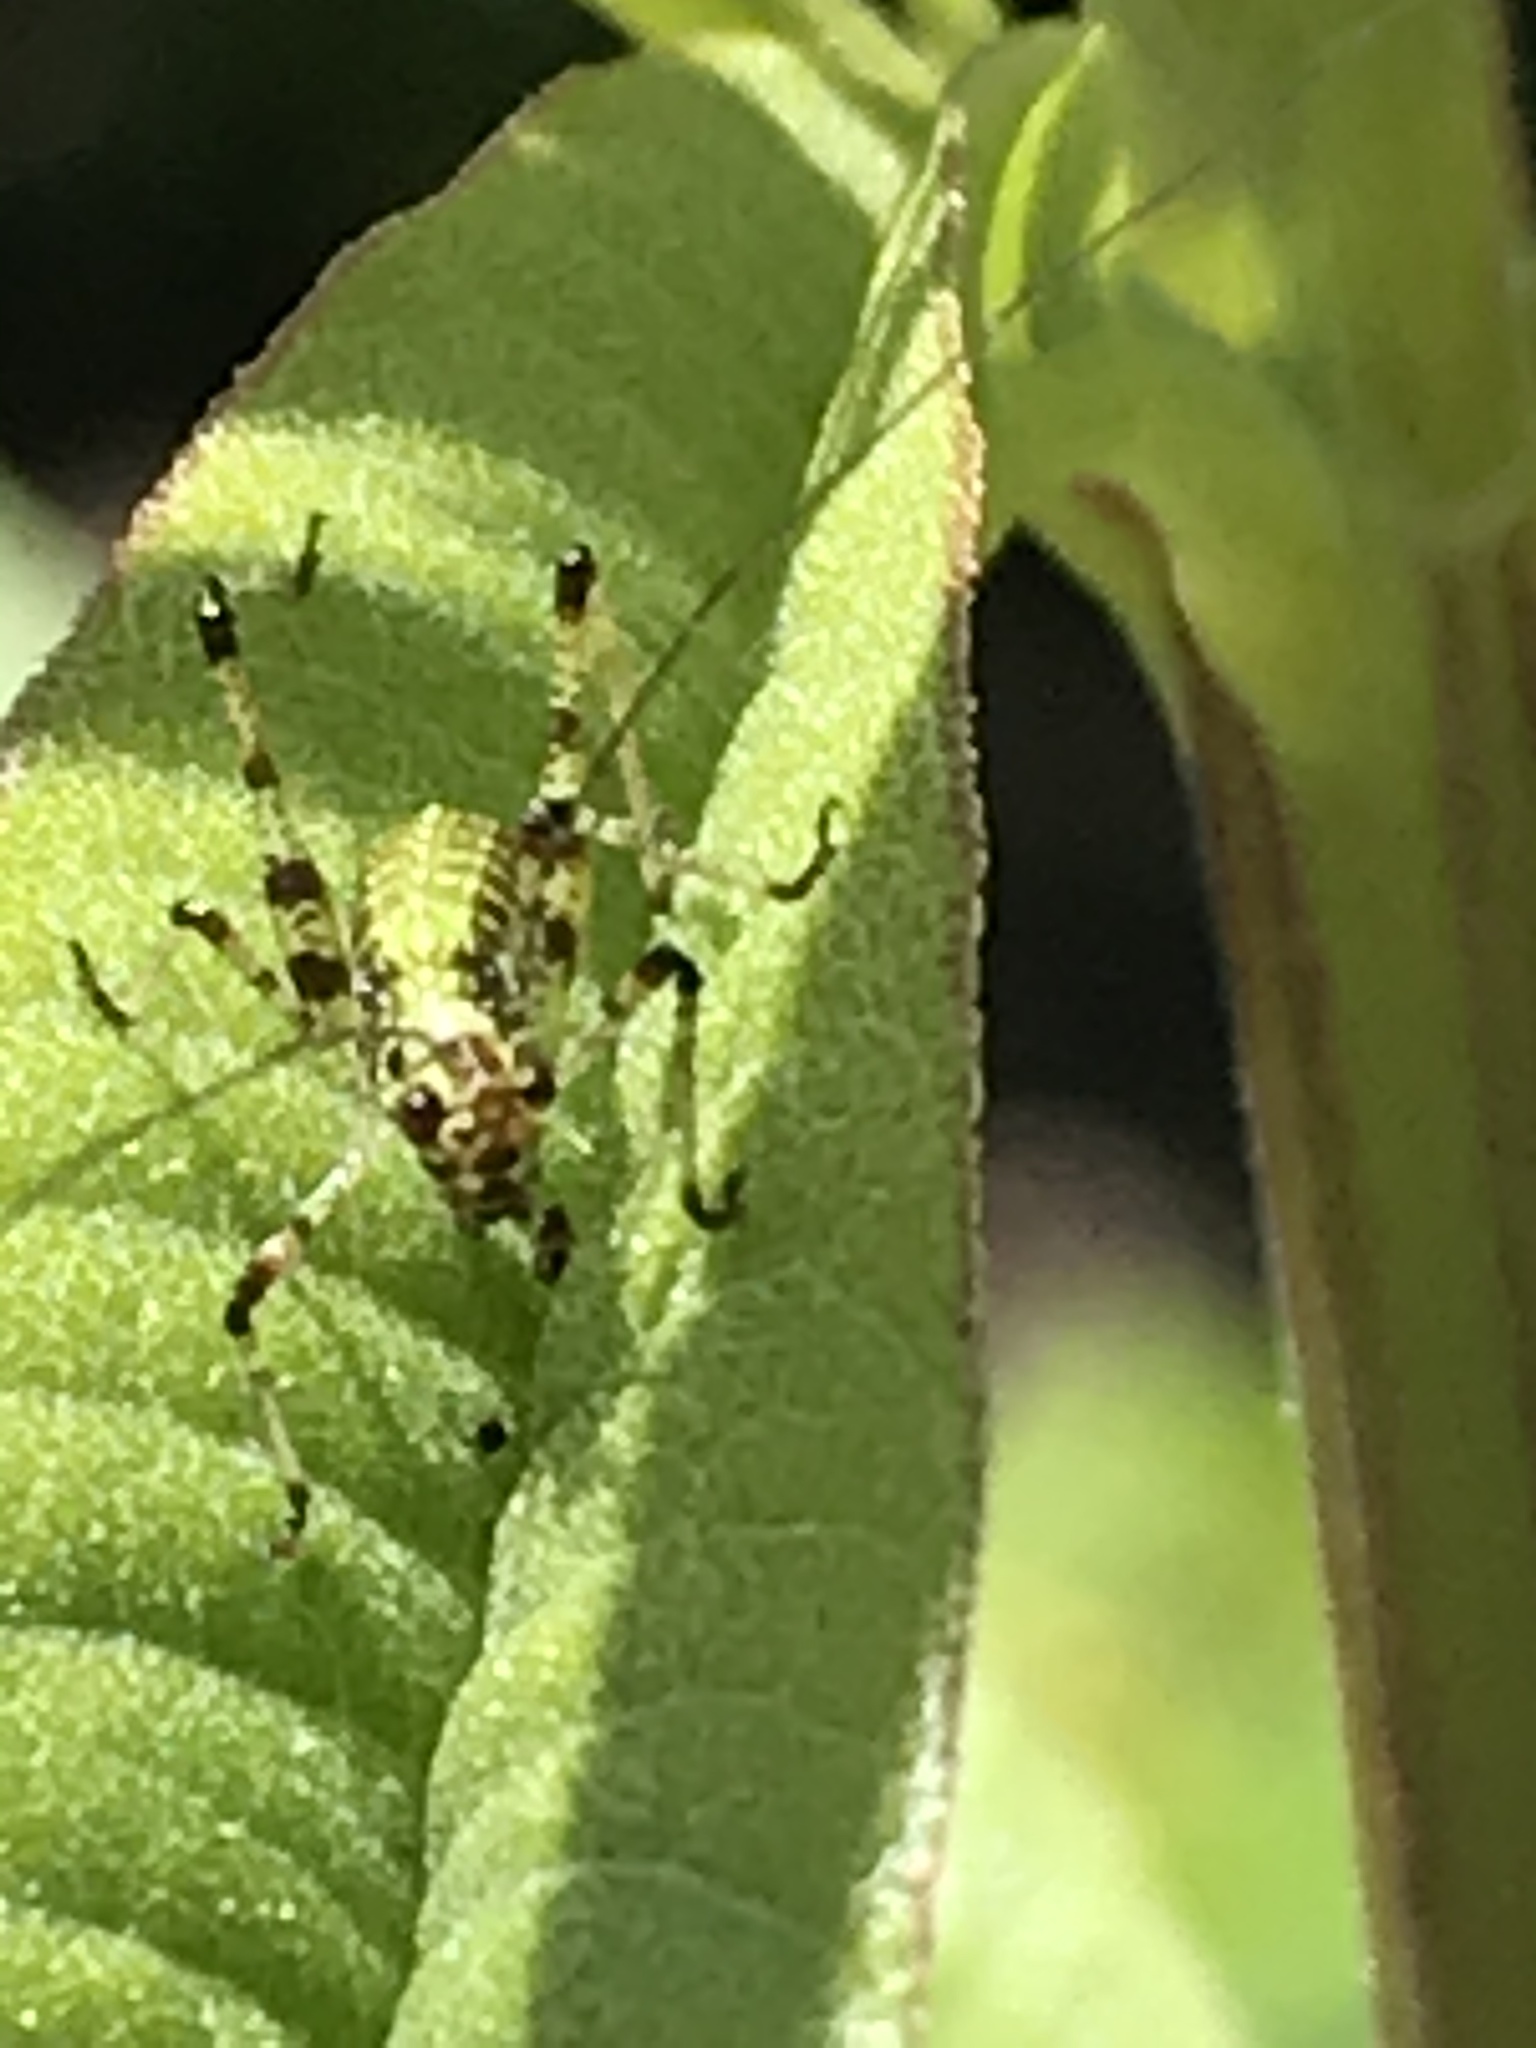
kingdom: Animalia
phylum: Arthropoda
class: Insecta
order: Orthoptera
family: Tettigoniidae
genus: Phaneroptera
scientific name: Phaneroptera nana
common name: Southern sickle bush-cricket
